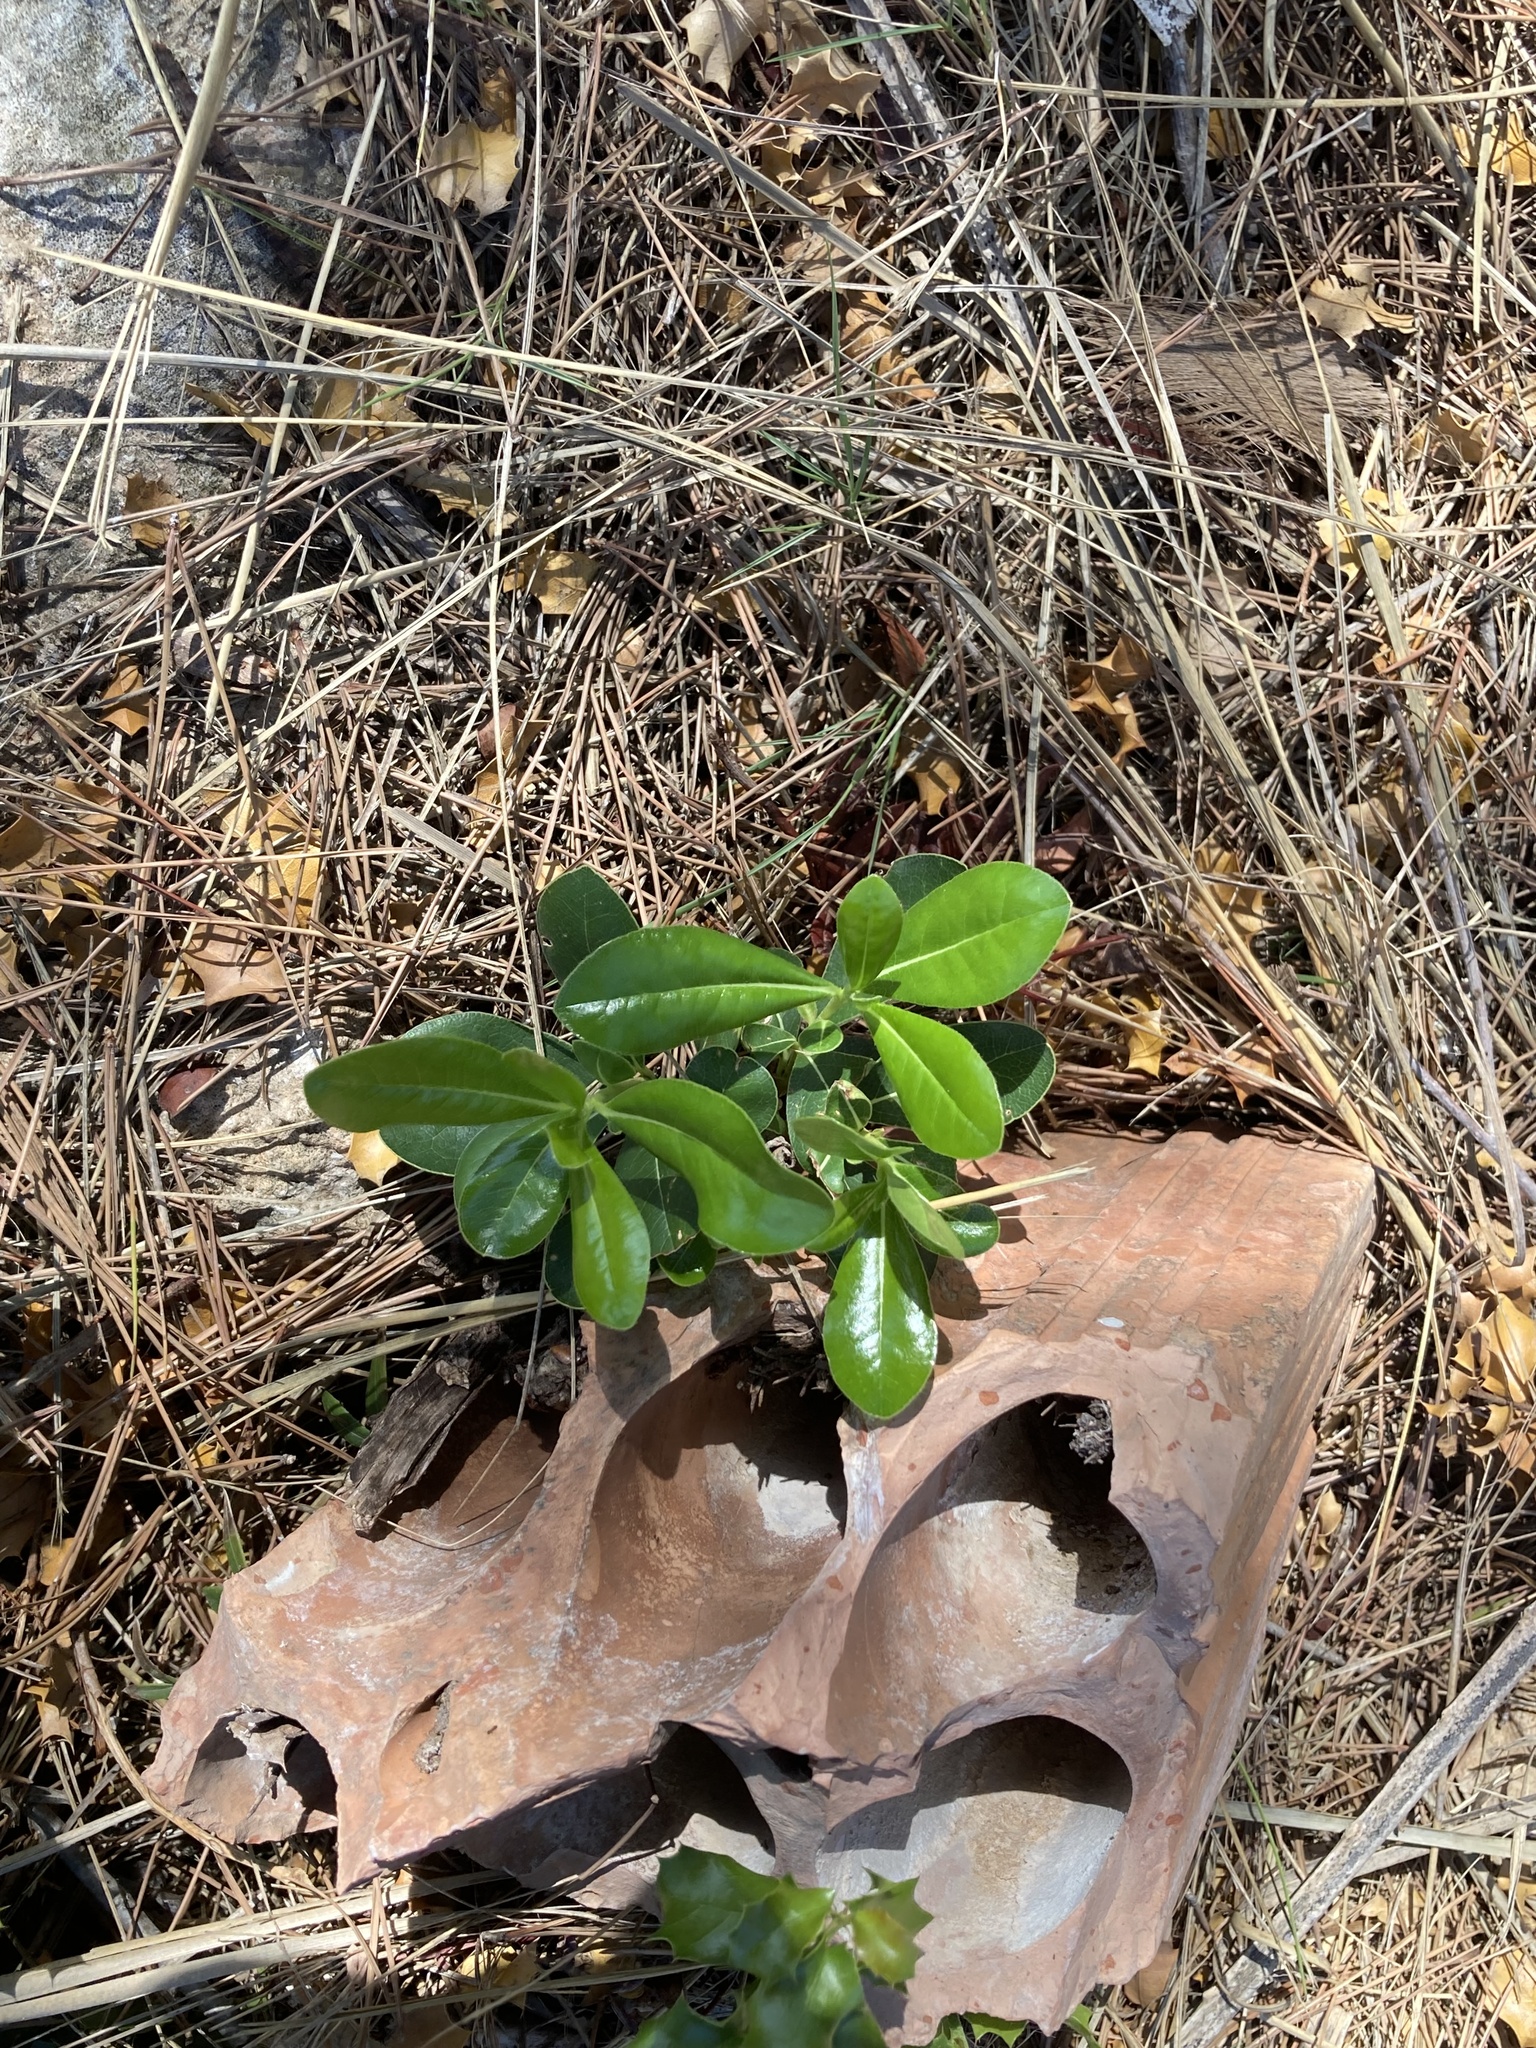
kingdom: Plantae
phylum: Tracheophyta
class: Magnoliopsida
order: Apiales
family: Pittosporaceae
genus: Pittosporum
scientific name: Pittosporum tobira
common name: Japanese cheesewood
